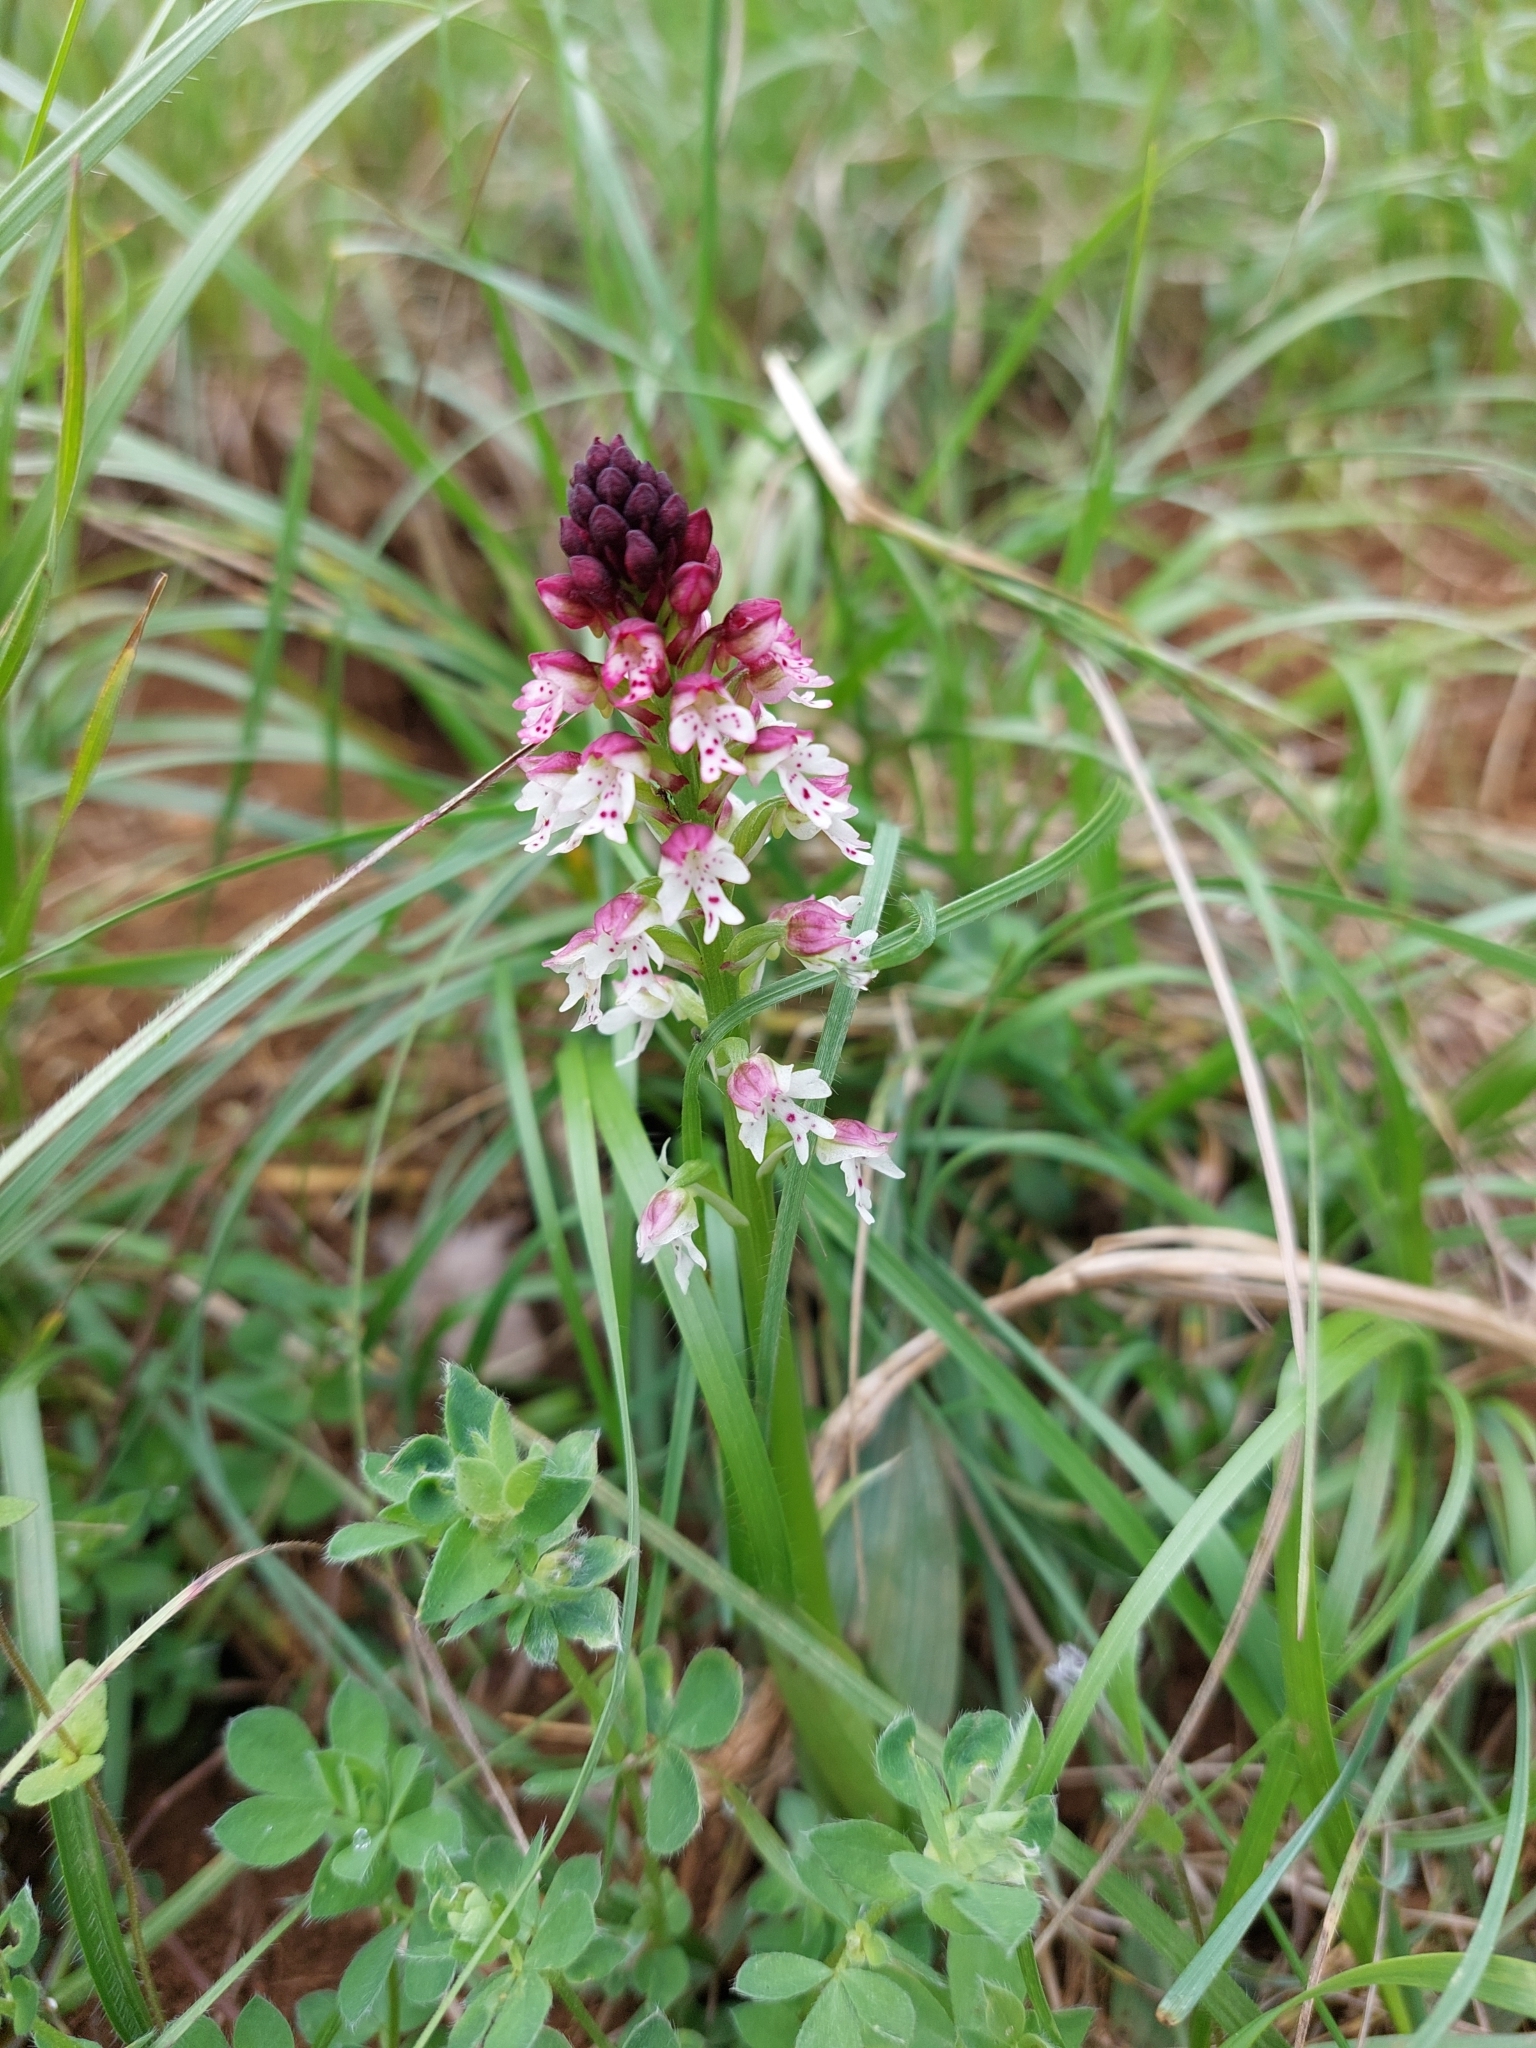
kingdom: Plantae
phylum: Tracheophyta
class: Liliopsida
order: Asparagales
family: Orchidaceae
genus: Neotinea
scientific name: Neotinea ustulata
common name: Burnt orchid
